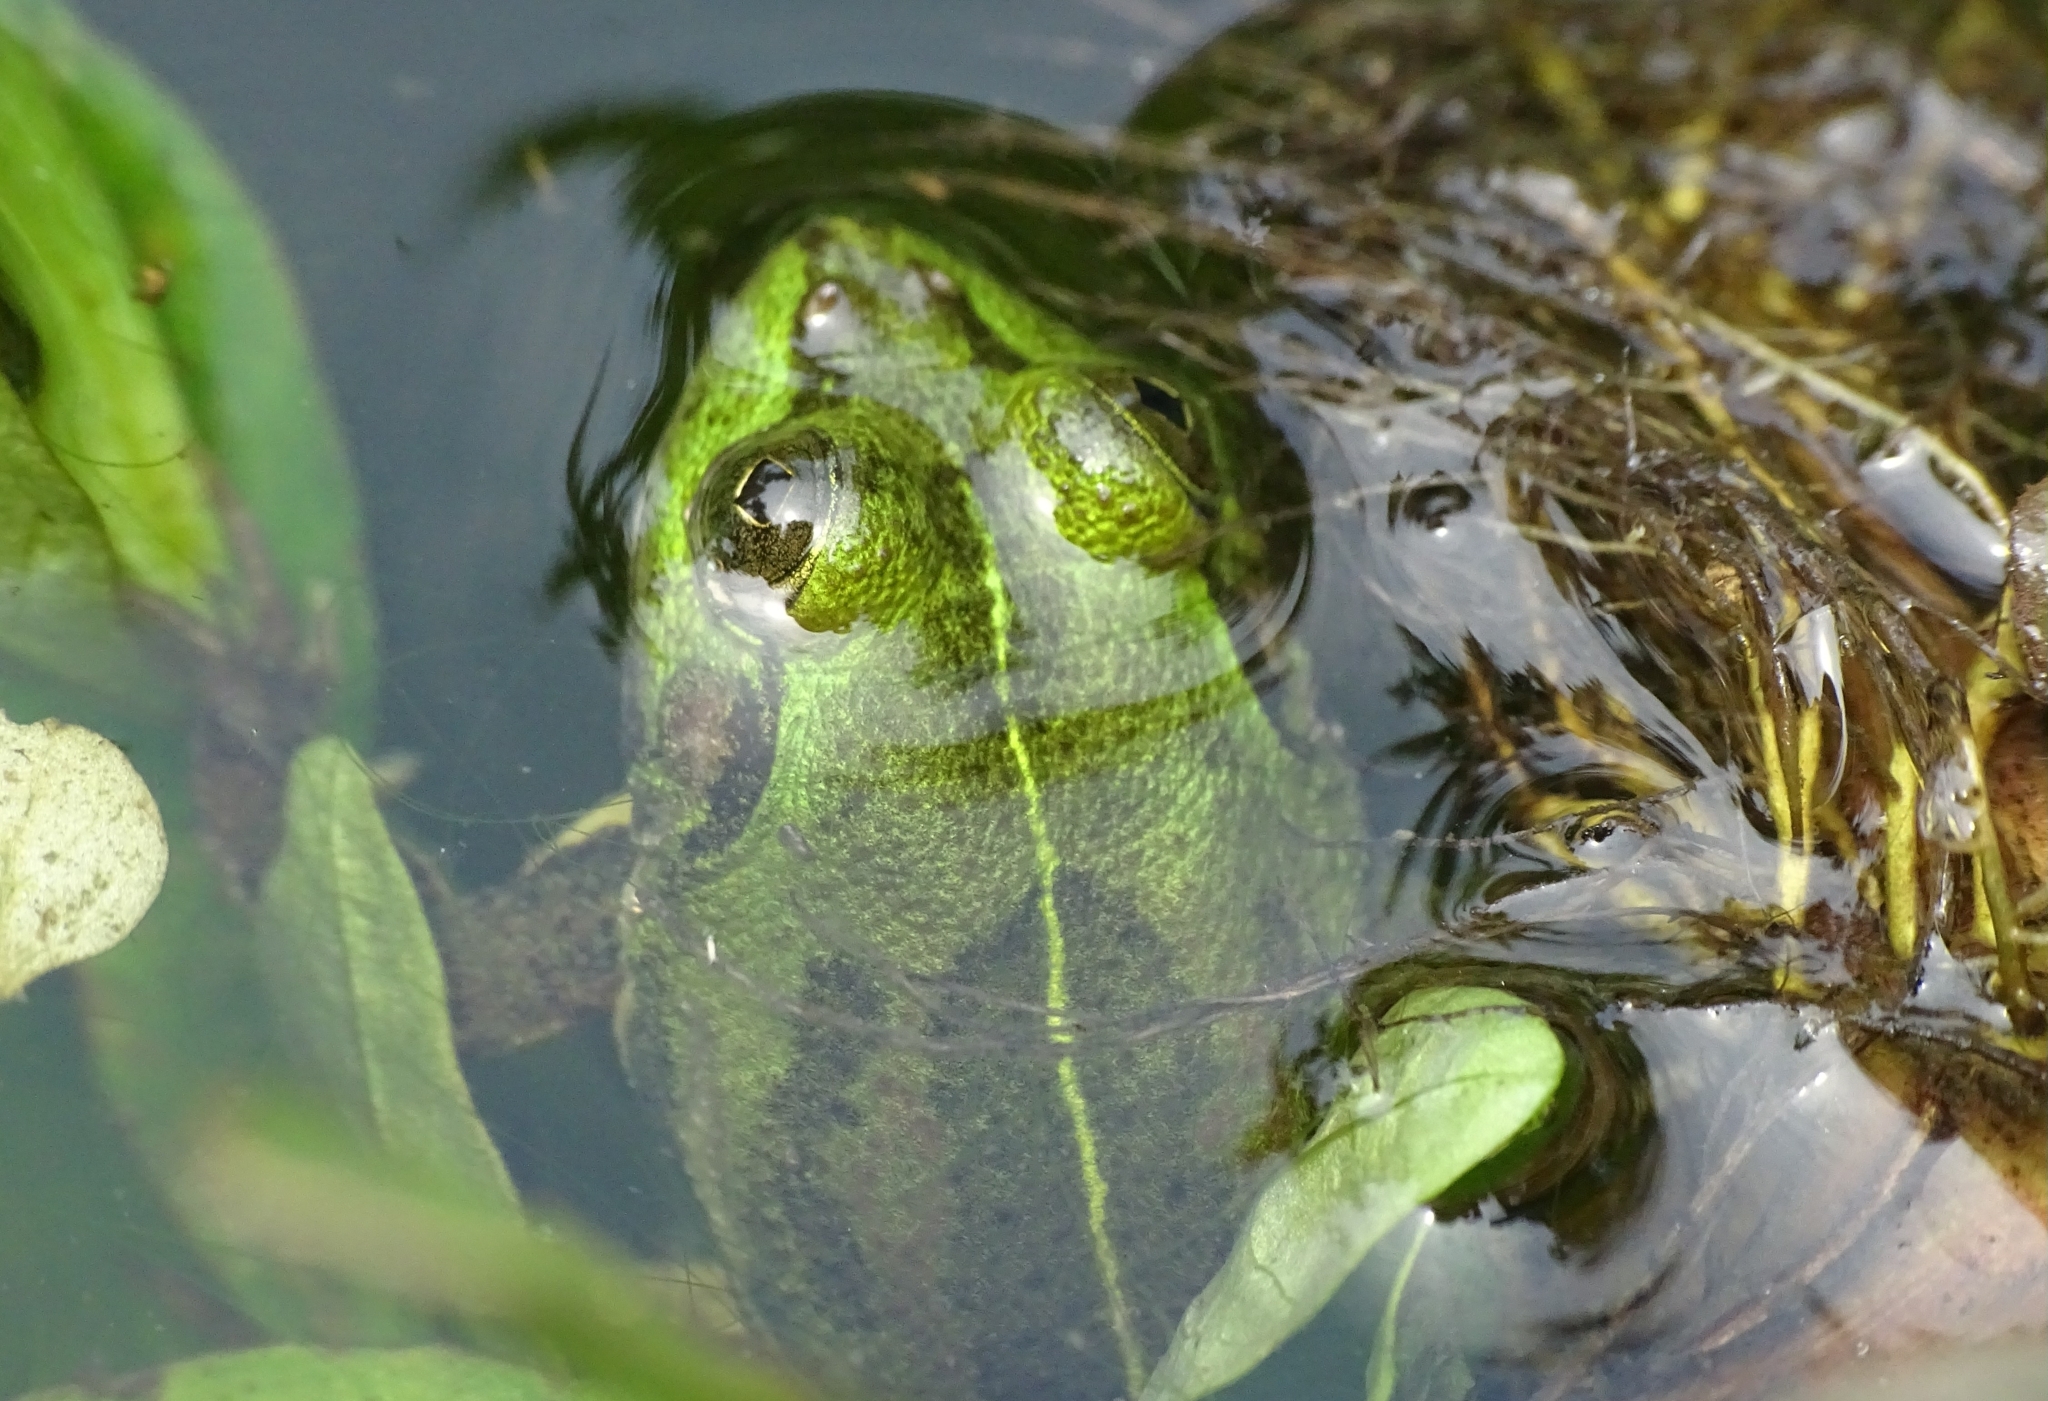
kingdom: Animalia
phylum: Chordata
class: Amphibia
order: Anura
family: Dicroglossidae
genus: Euphlyctis
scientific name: Euphlyctis karaavali
